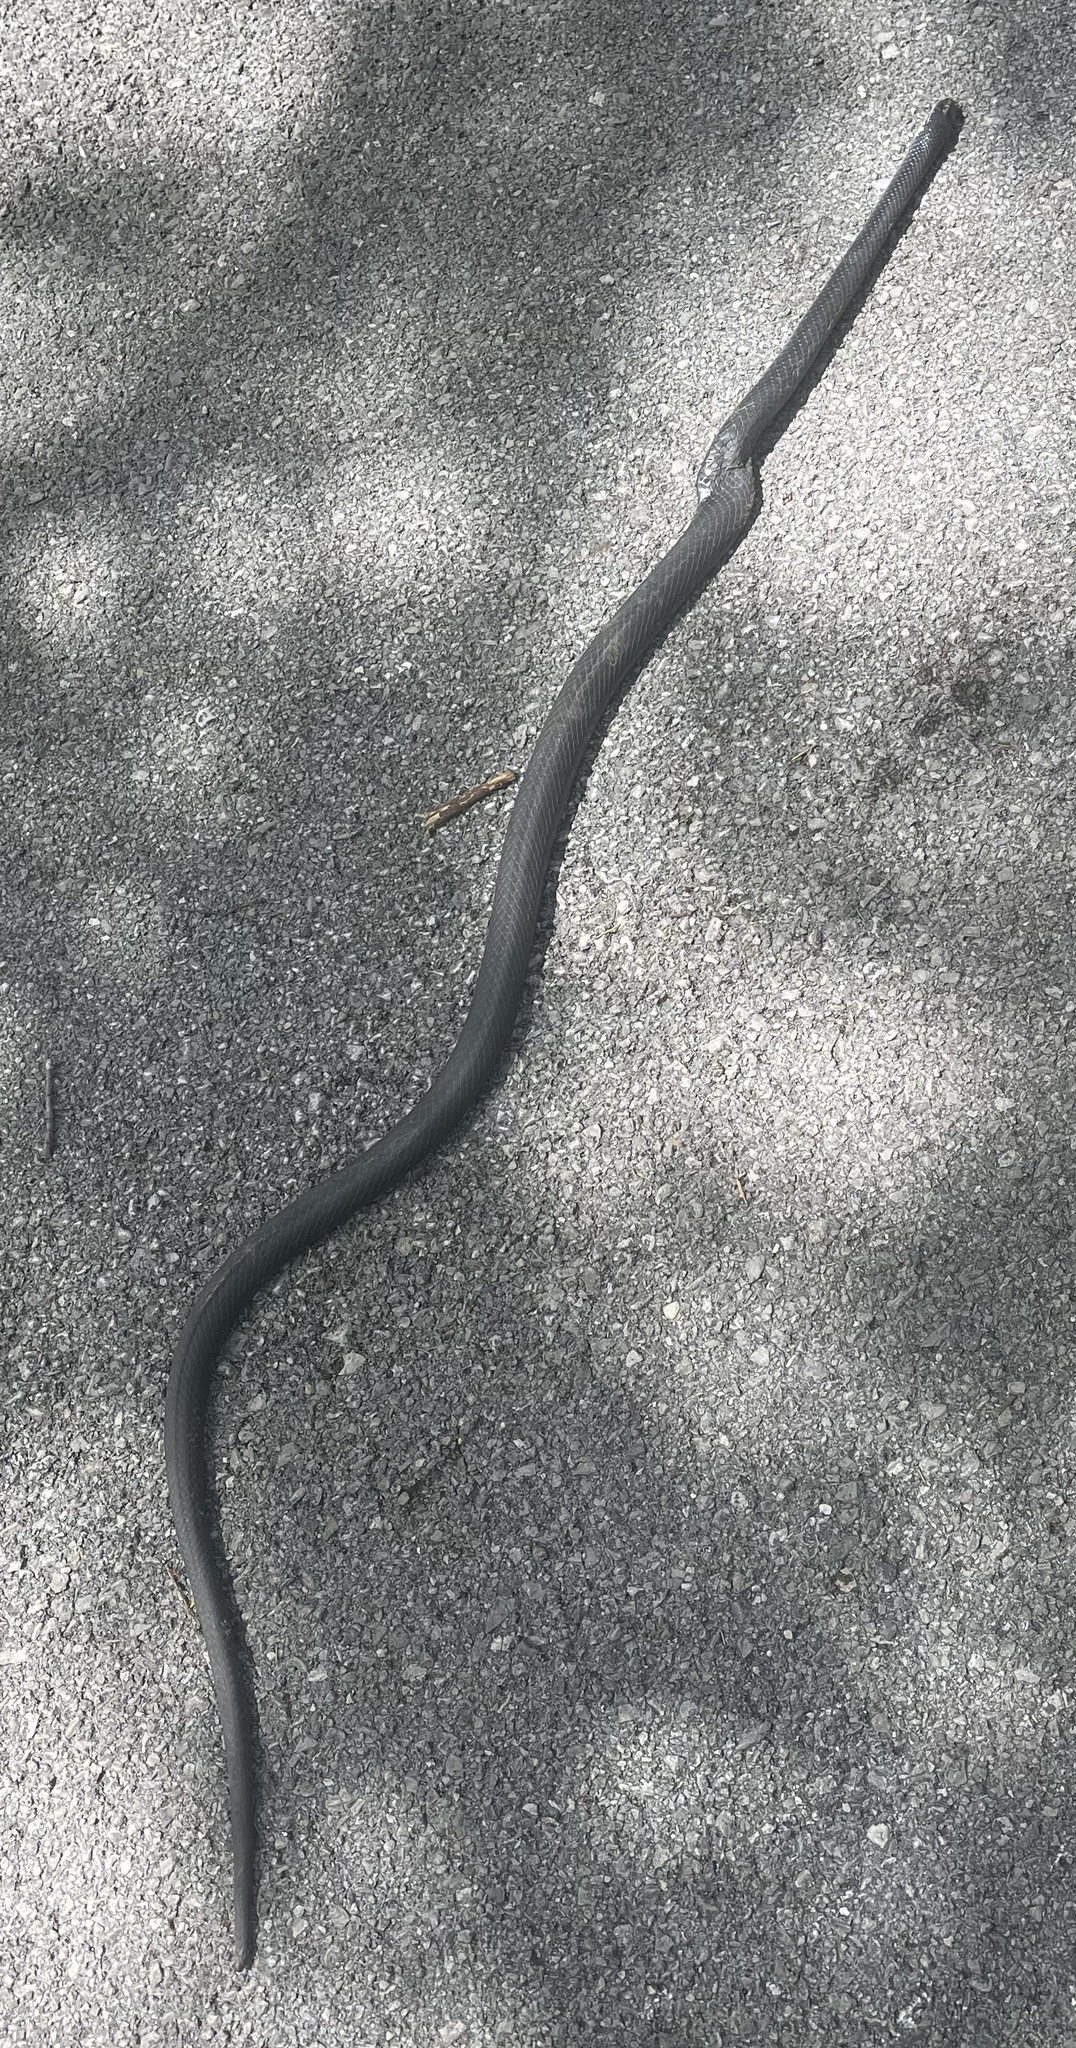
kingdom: Animalia
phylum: Chordata
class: Squamata
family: Colubridae
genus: Coluber
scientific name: Coluber constrictor
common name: Eastern racer
